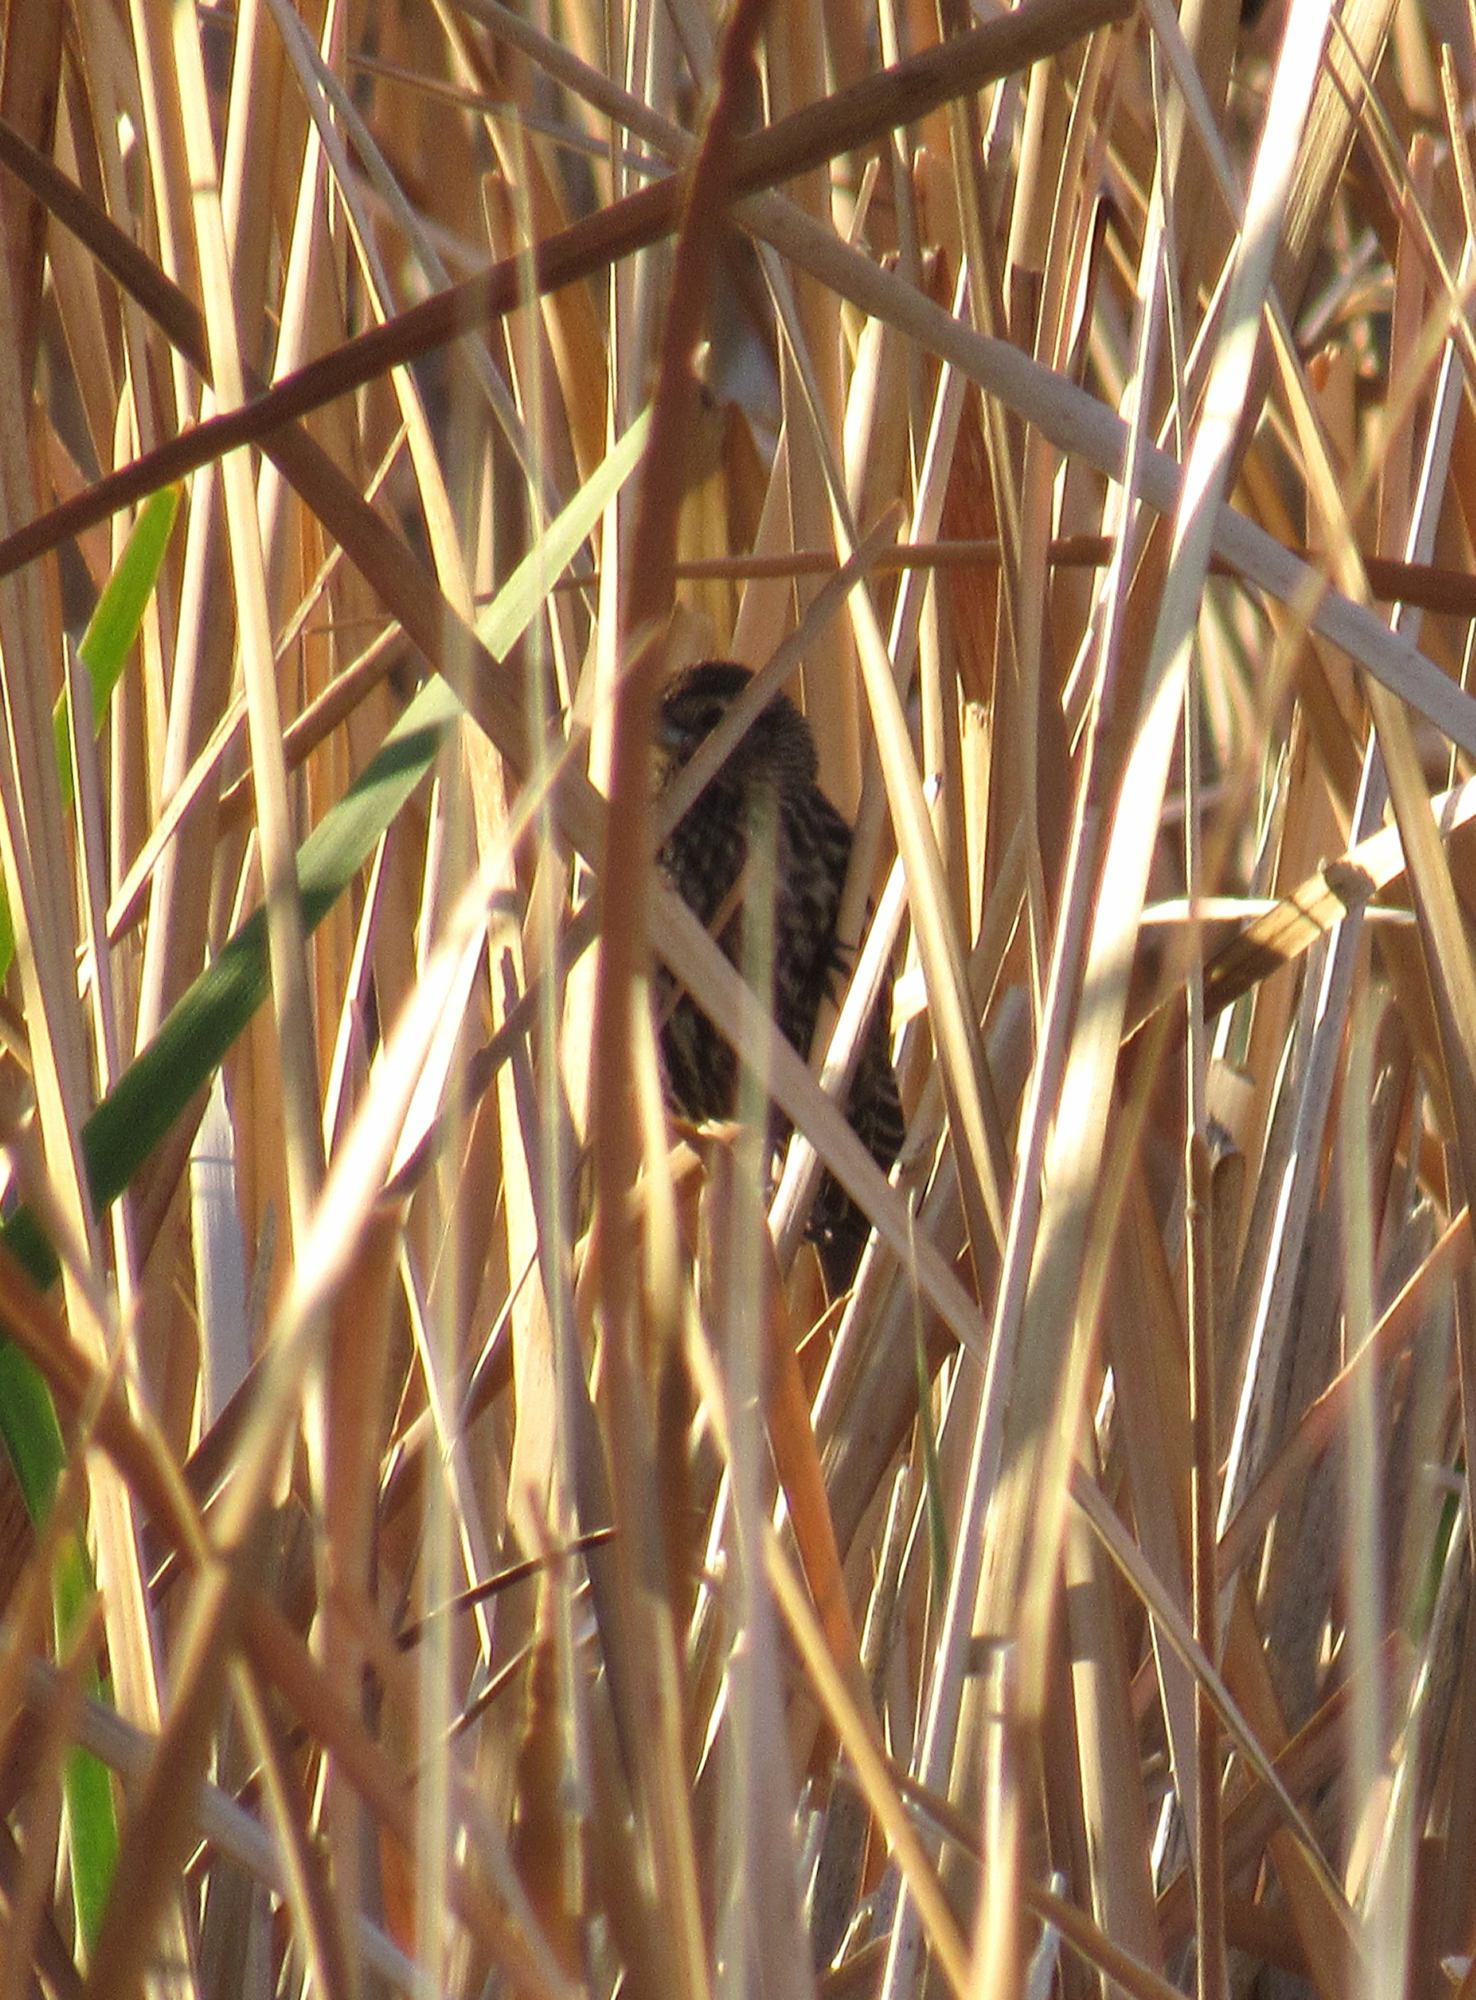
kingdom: Animalia
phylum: Chordata
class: Aves
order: Passeriformes
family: Icteridae
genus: Agelaius
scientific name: Agelaius phoeniceus
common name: Red-winged blackbird
